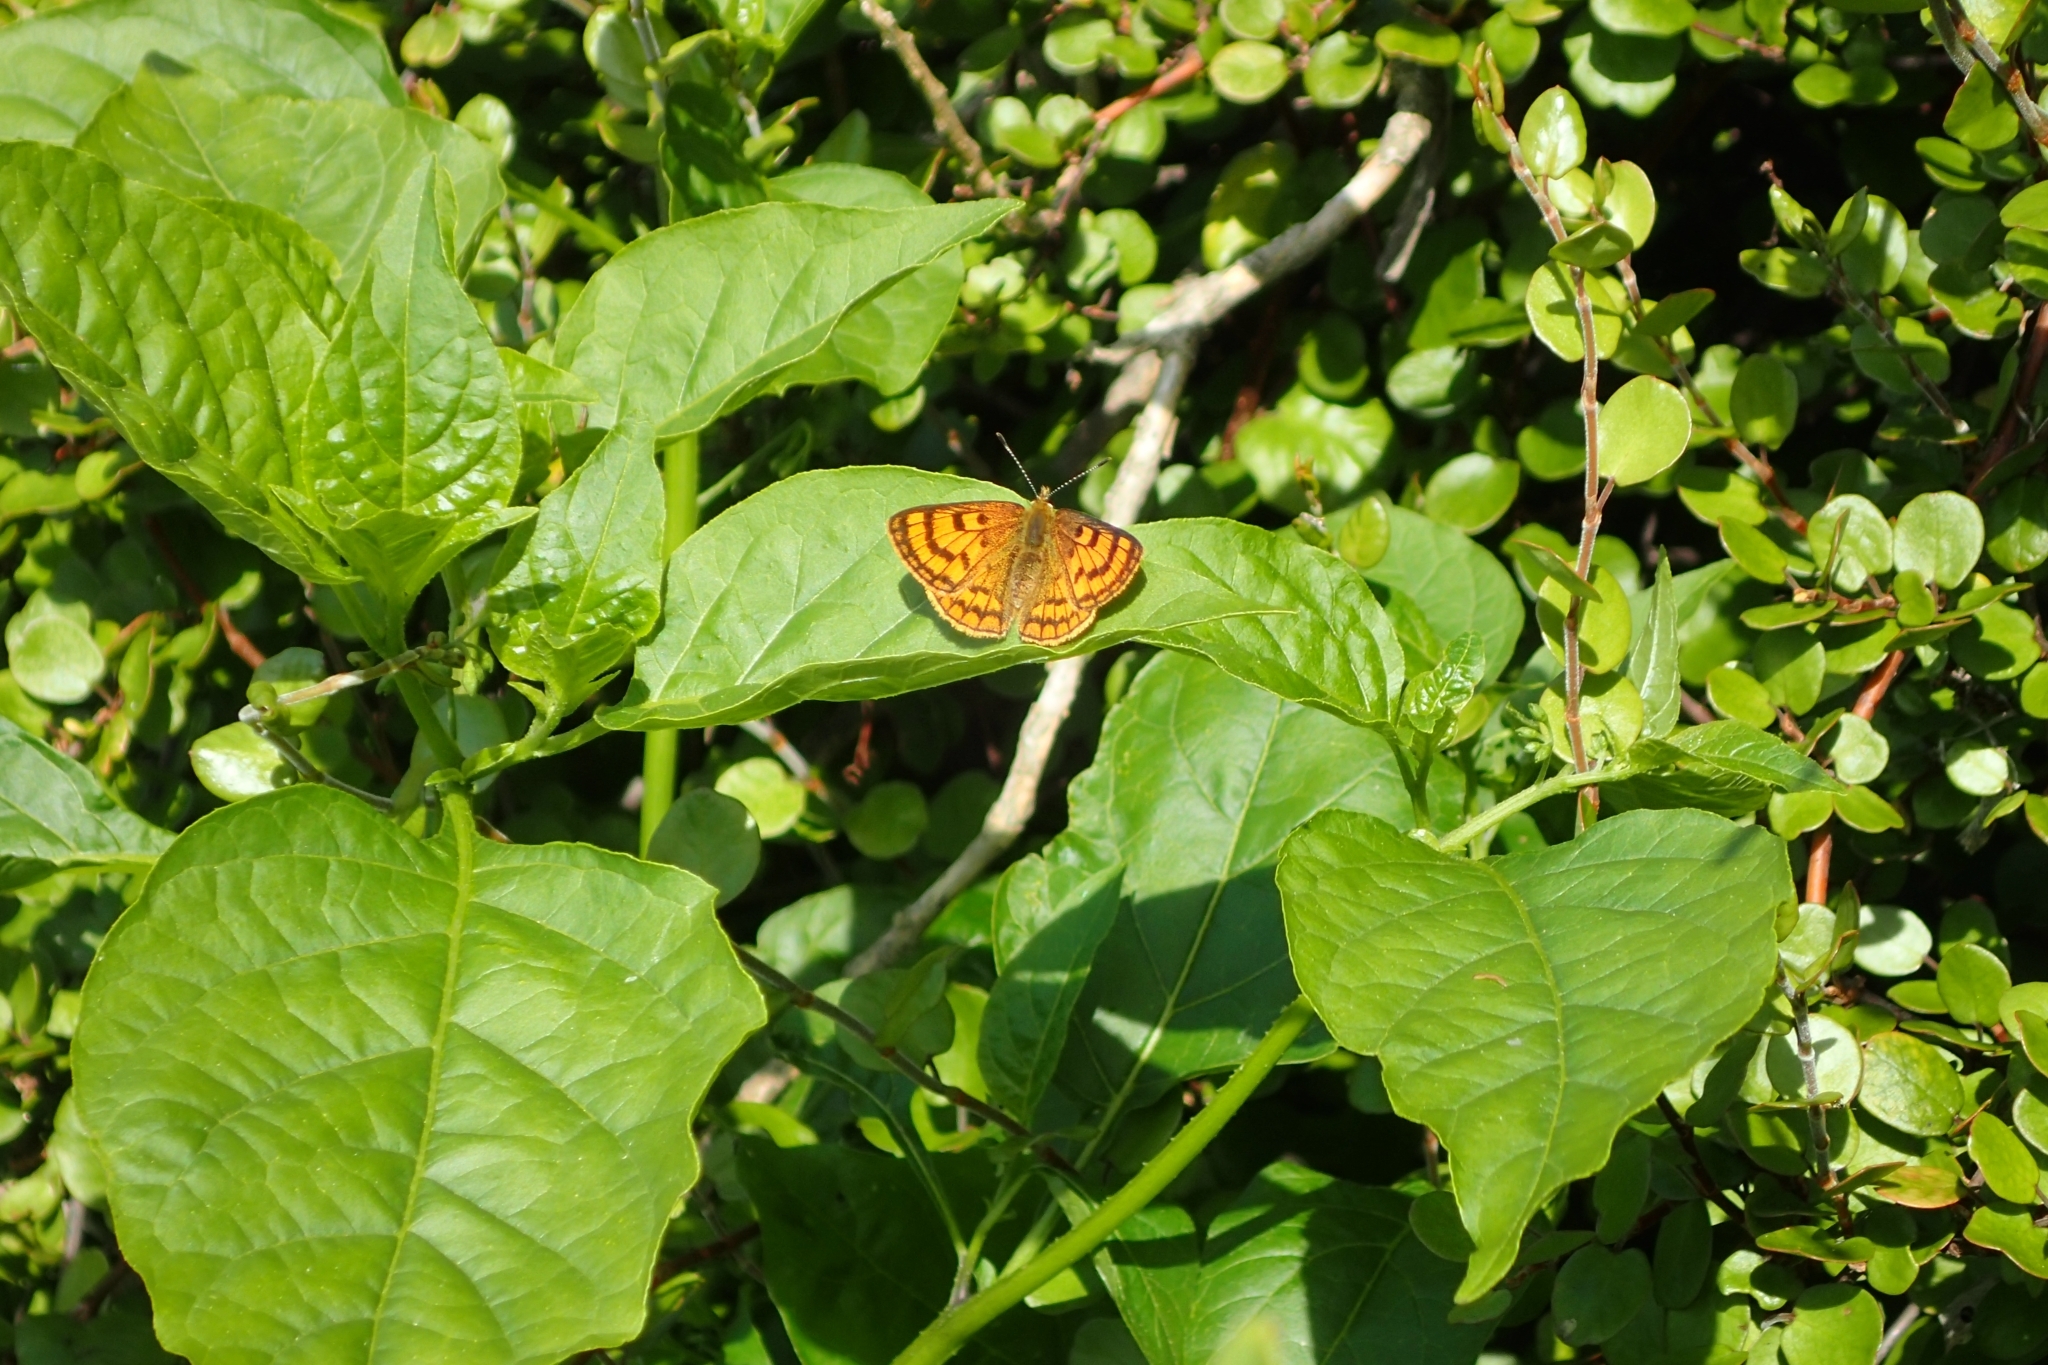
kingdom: Animalia
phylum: Arthropoda
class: Insecta
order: Lepidoptera
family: Lycaenidae
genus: Lycaena
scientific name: Lycaena salustius
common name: North island coastal copper
